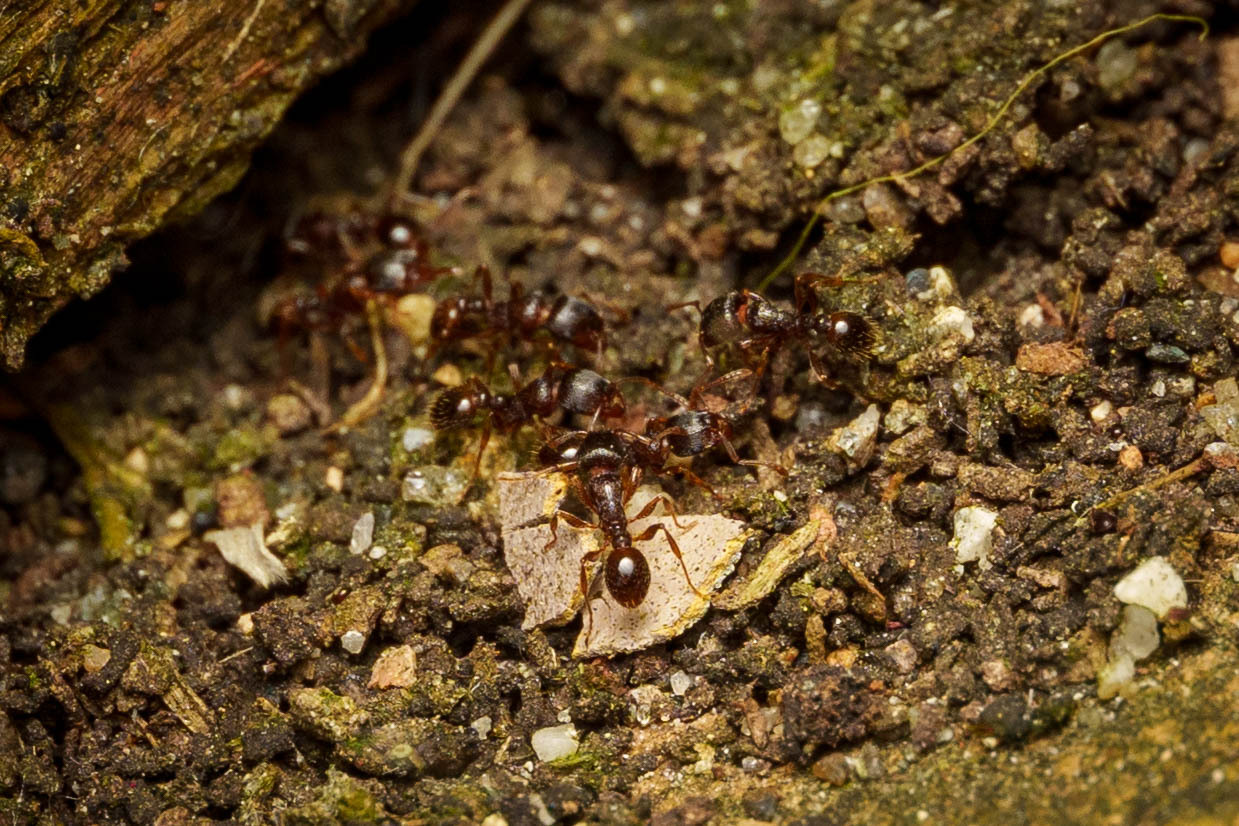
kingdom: Animalia
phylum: Arthropoda
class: Insecta
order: Hymenoptera
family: Formicidae
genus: Tetramorium
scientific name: Tetramorium immigrans
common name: Pavement ant
